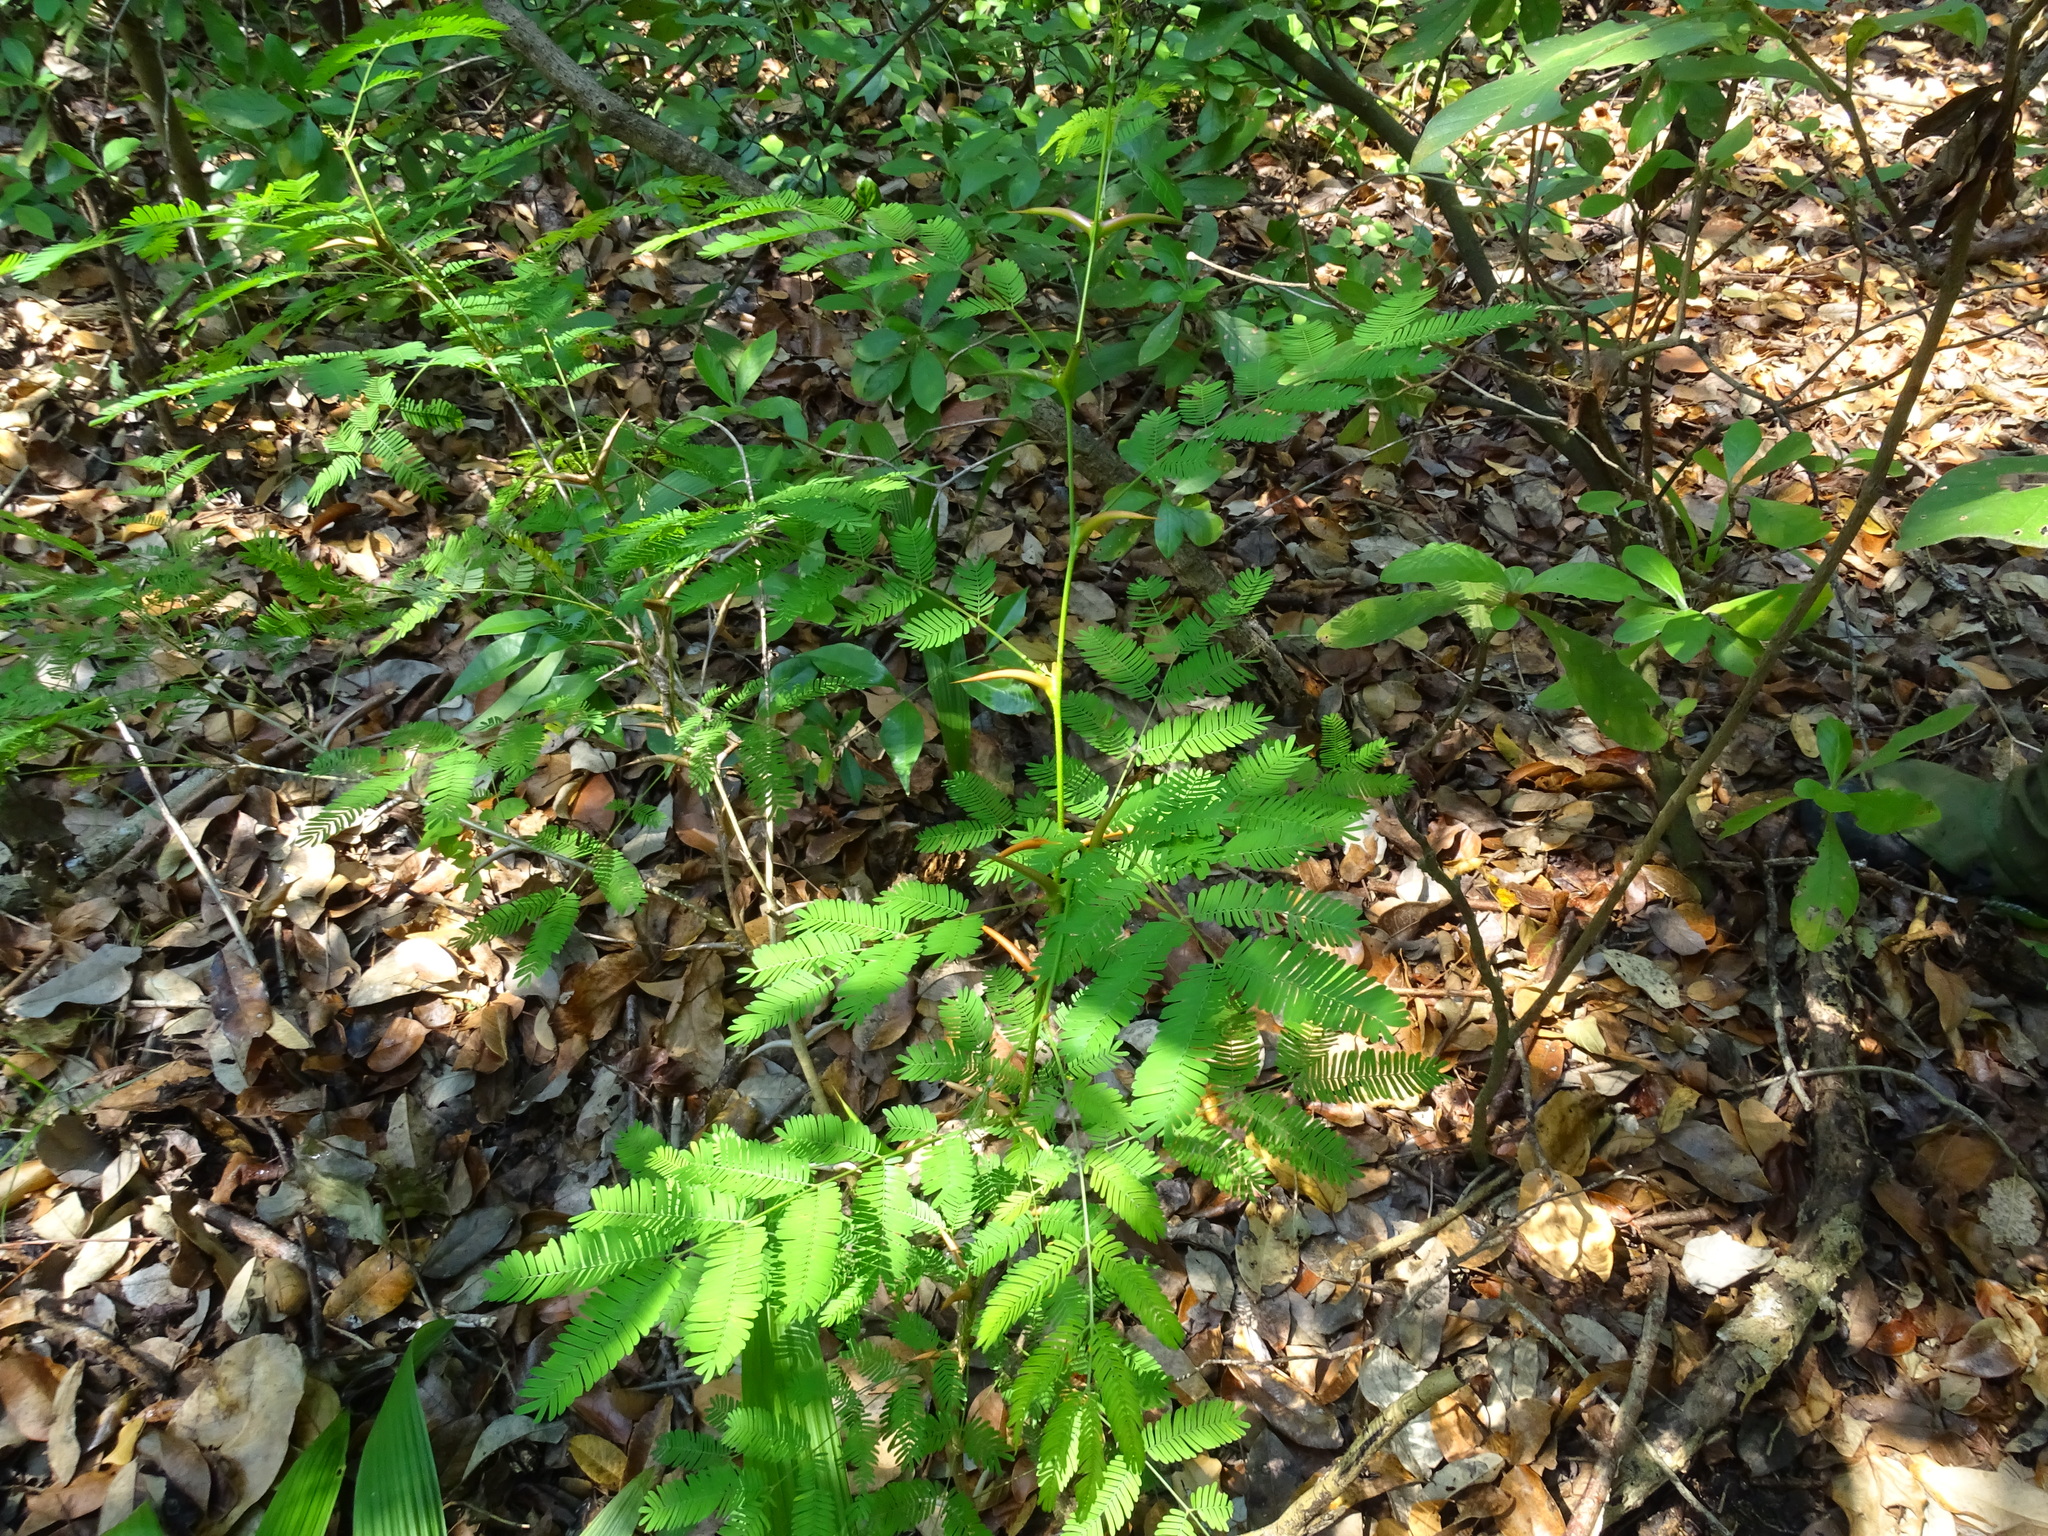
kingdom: Plantae
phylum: Tracheophyta
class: Magnoliopsida
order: Fabales
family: Fabaceae
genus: Vachellia
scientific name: Vachellia cornigera
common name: Bullhorn wattle
